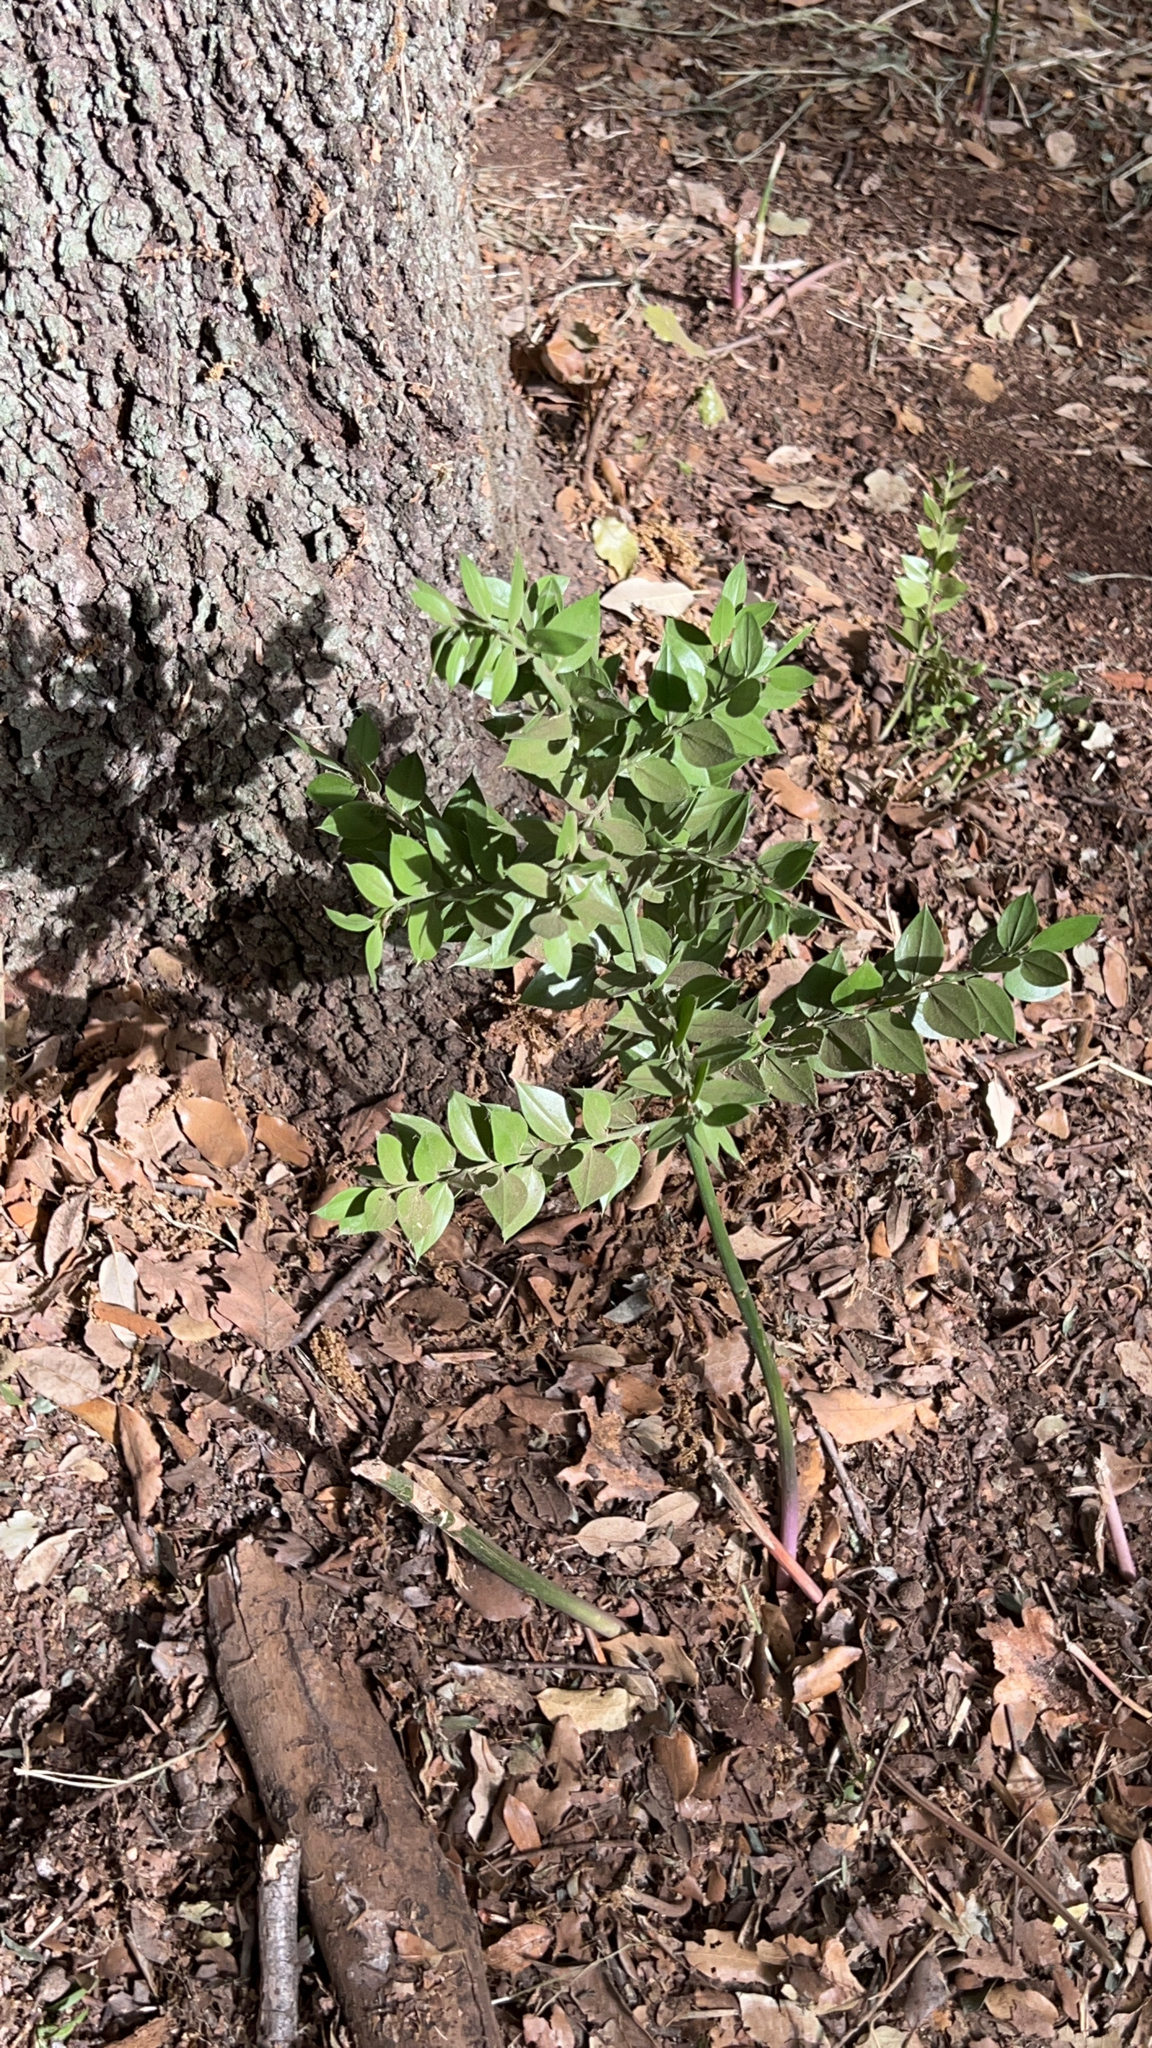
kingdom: Plantae
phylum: Tracheophyta
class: Liliopsida
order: Asparagales
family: Asparagaceae
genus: Ruscus
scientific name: Ruscus aculeatus
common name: Butcher's-broom
